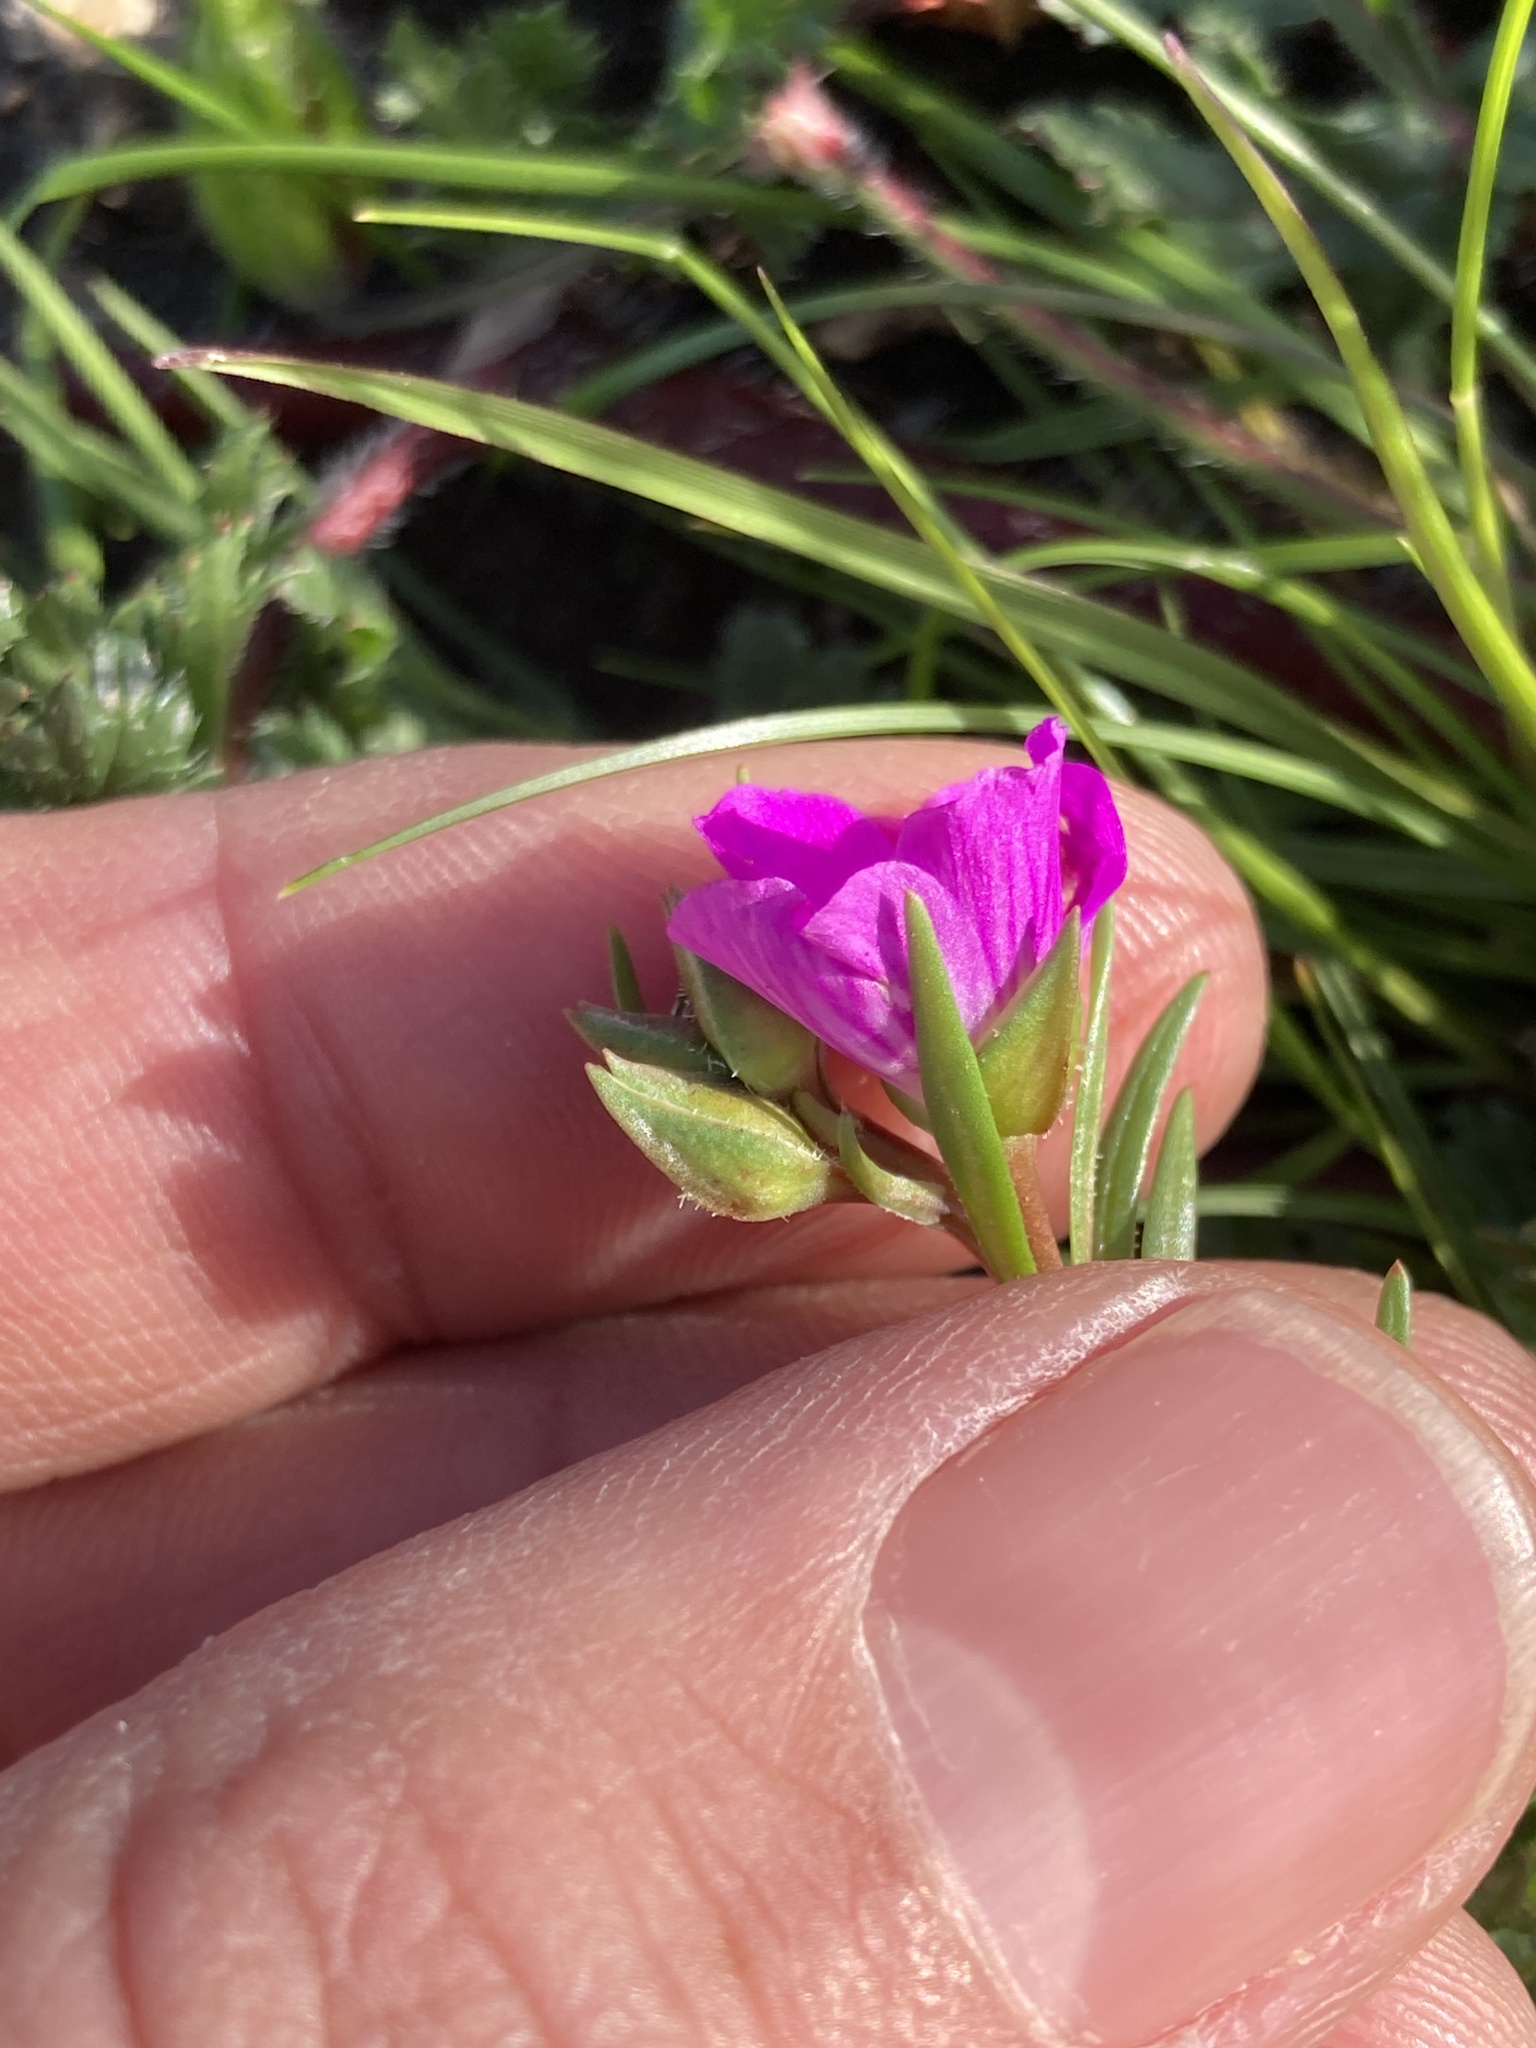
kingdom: Plantae
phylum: Tracheophyta
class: Magnoliopsida
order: Caryophyllales
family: Montiaceae
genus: Calandrinia
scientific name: Calandrinia menziesii
